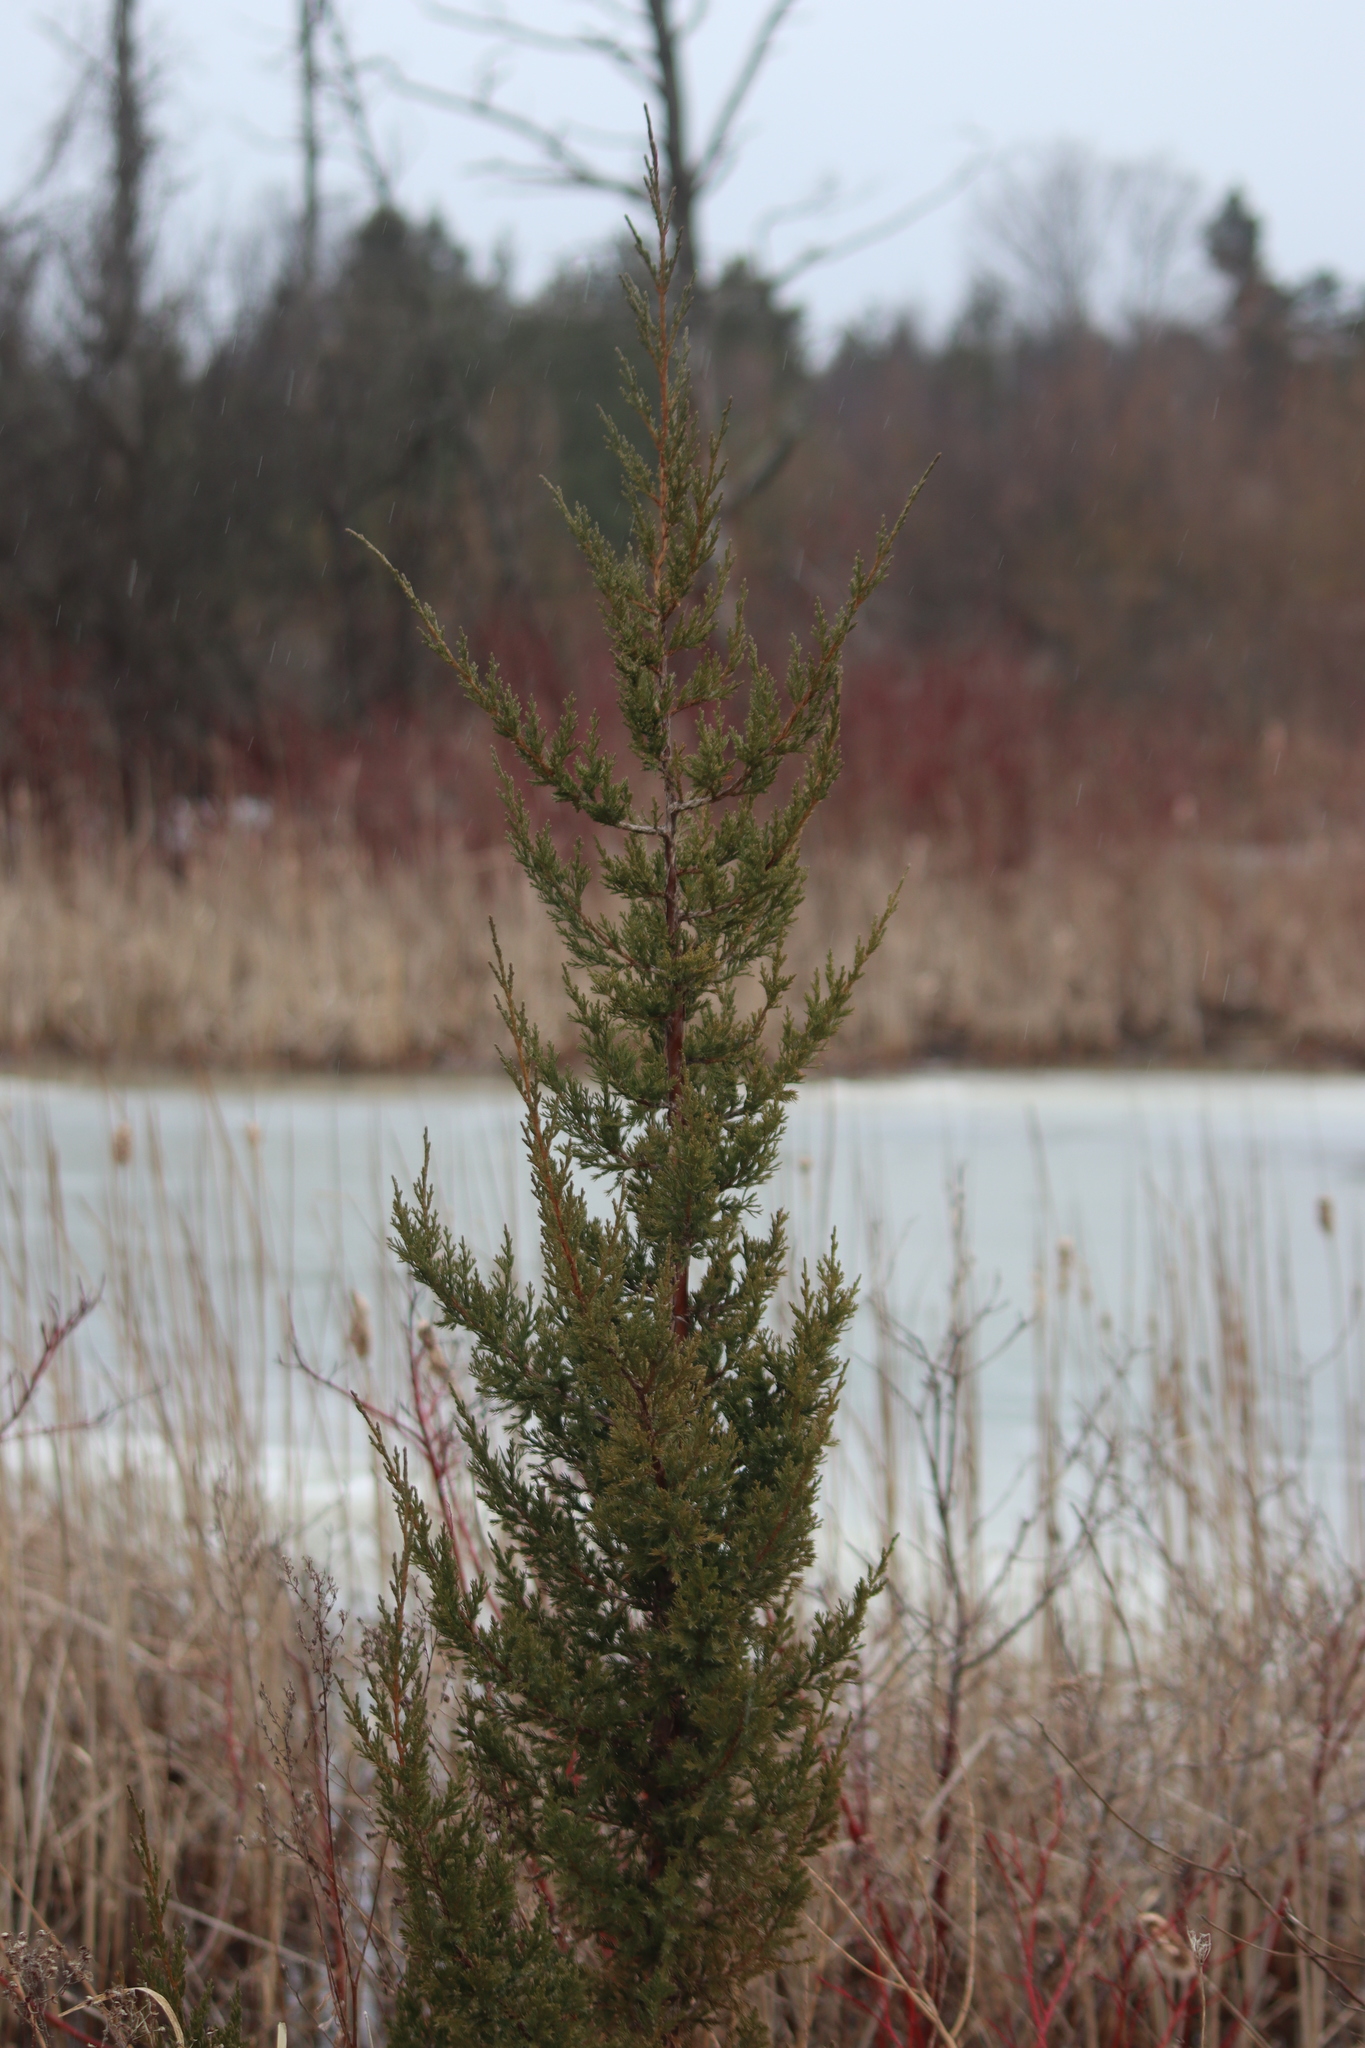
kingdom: Plantae
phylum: Tracheophyta
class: Pinopsida
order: Pinales
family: Cupressaceae
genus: Juniperus
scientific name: Juniperus virginiana
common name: Red juniper
